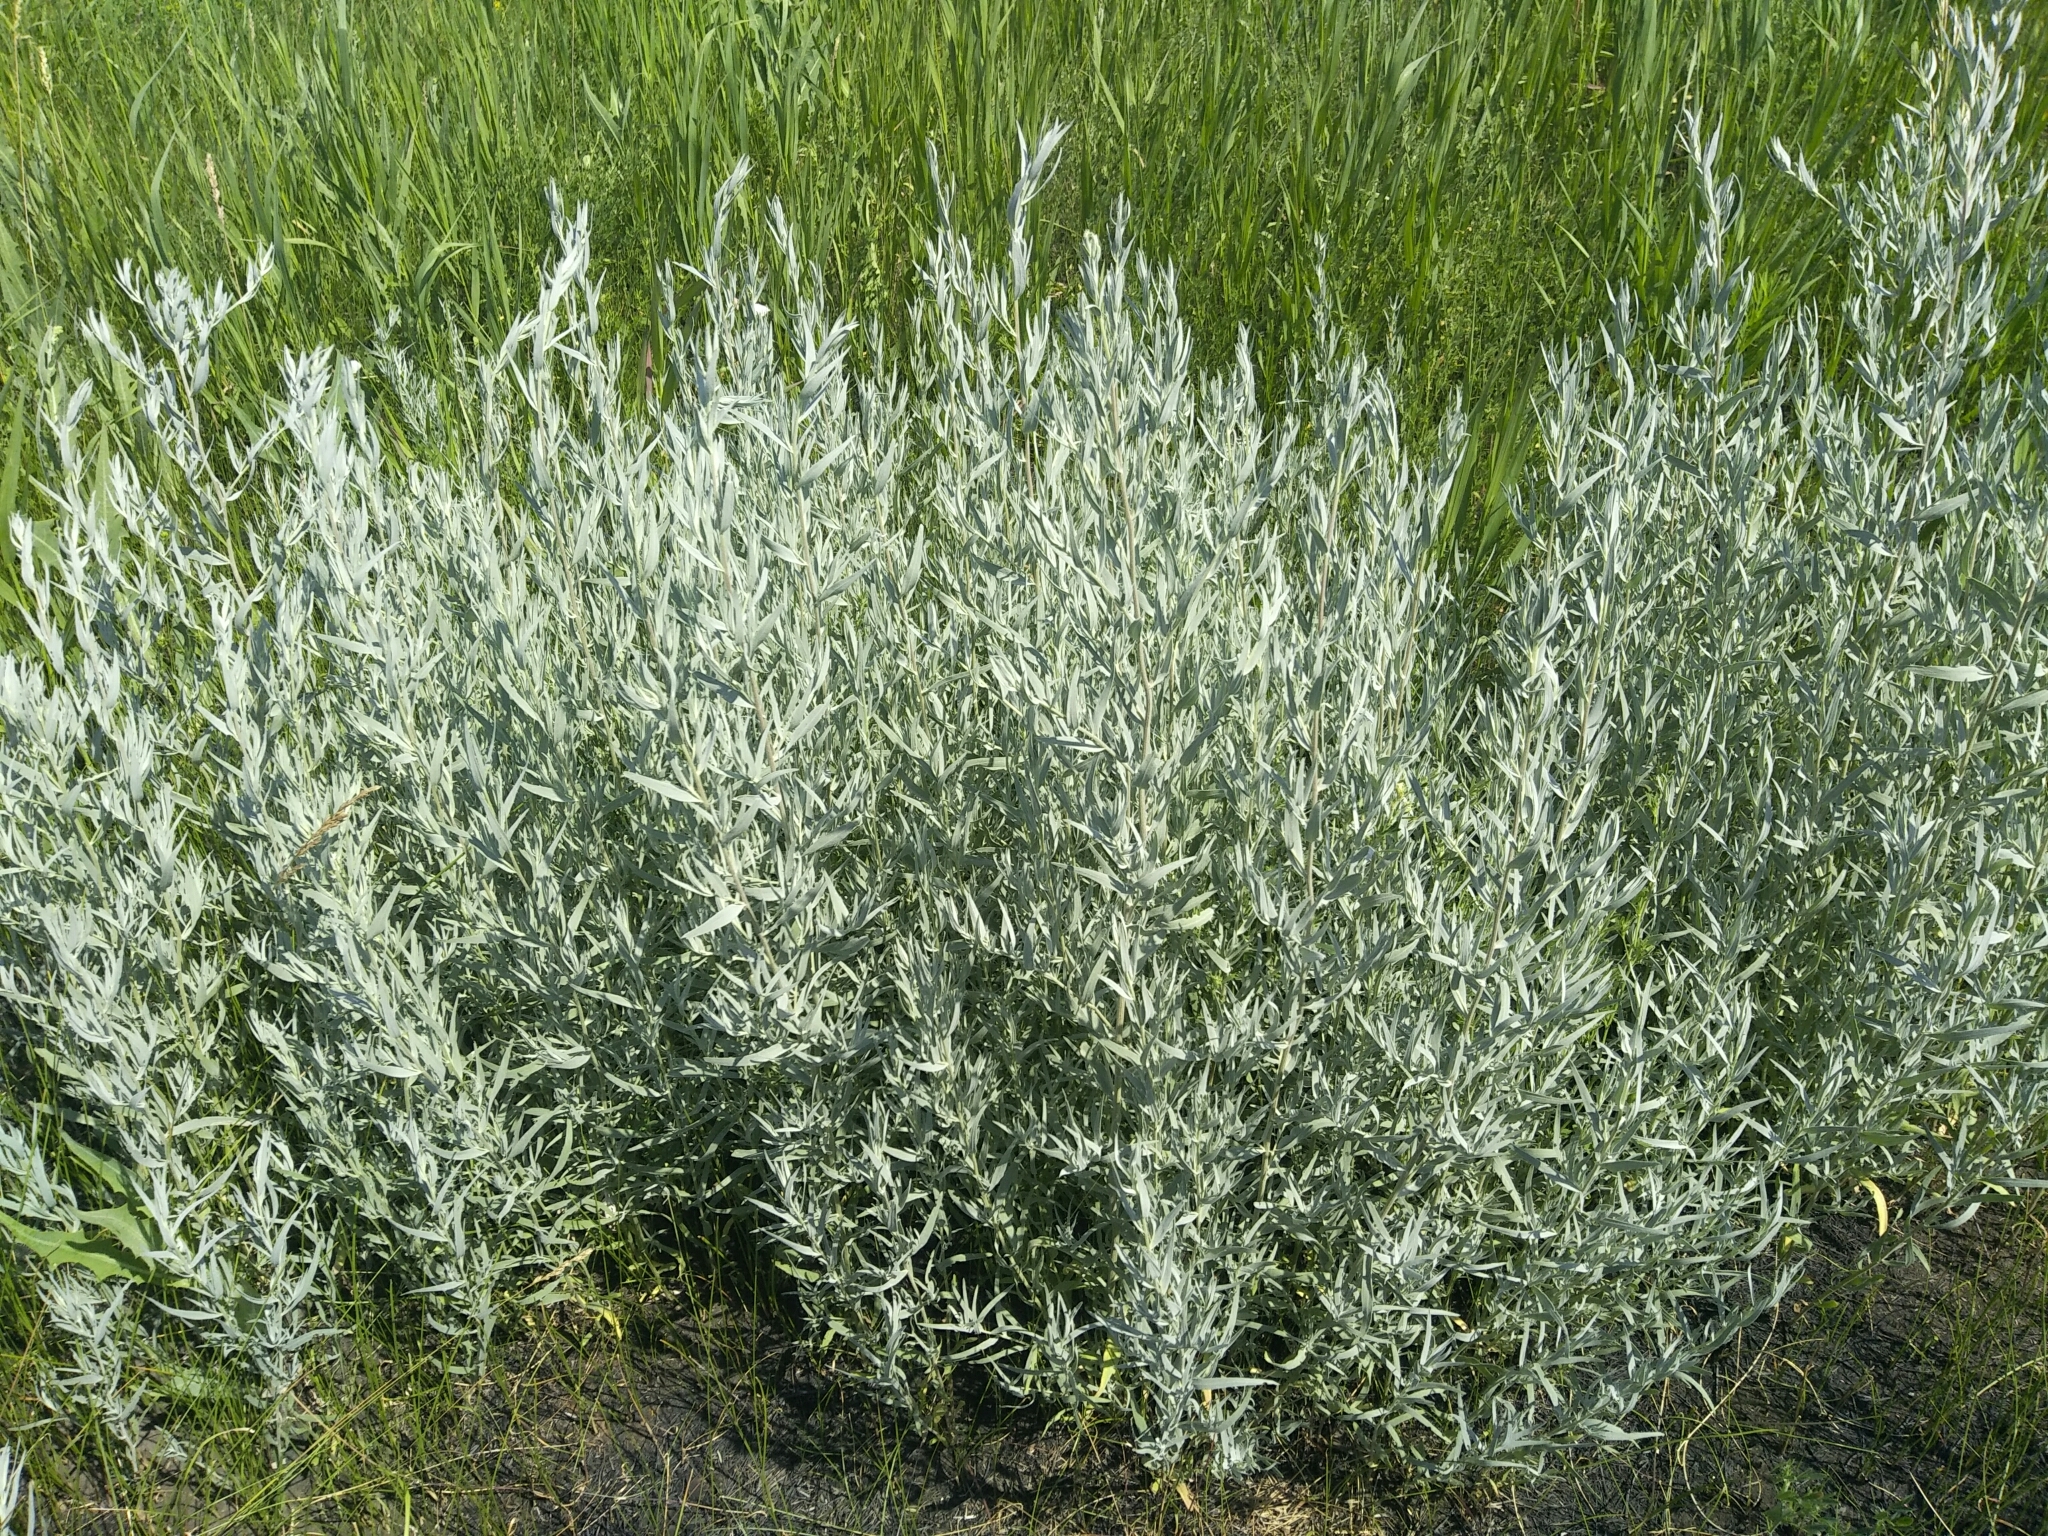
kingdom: Plantae
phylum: Tracheophyta
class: Magnoliopsida
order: Asterales
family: Asteraceae
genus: Artemisia
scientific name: Artemisia glauca
